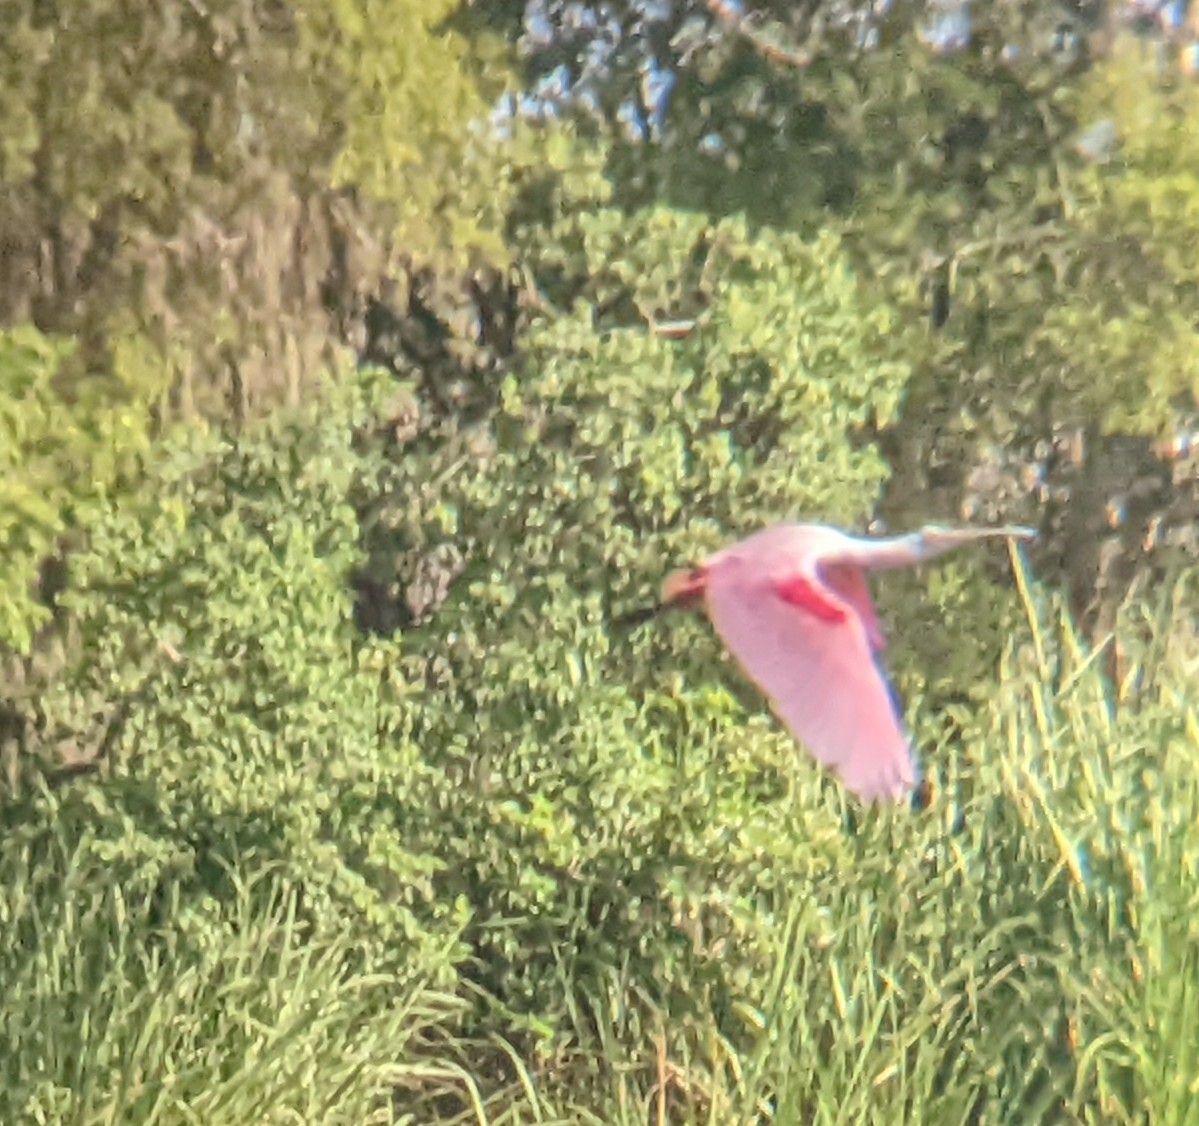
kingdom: Animalia
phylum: Chordata
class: Aves
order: Pelecaniformes
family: Threskiornithidae
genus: Platalea
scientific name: Platalea ajaja
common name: Roseate spoonbill
